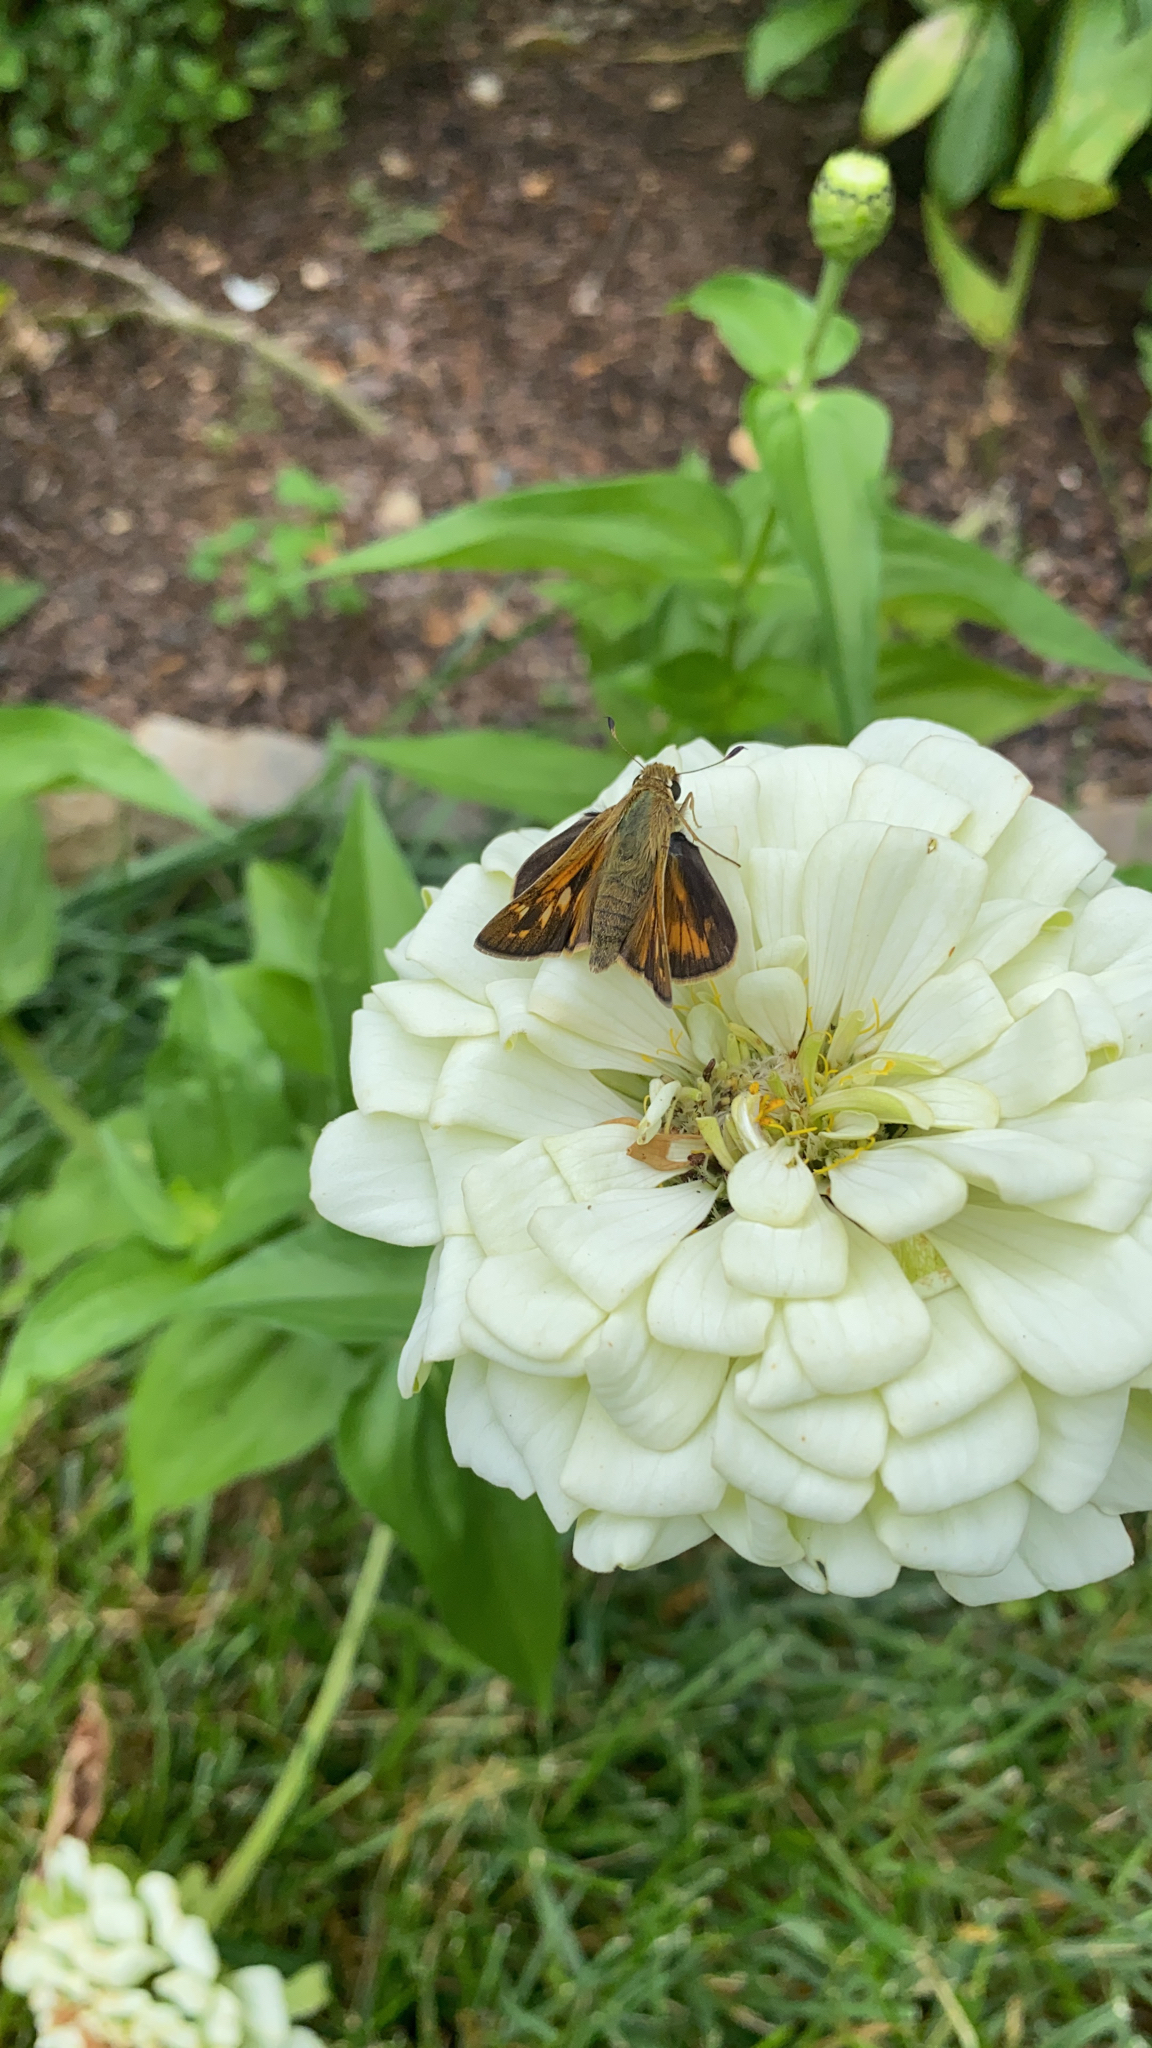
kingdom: Animalia
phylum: Arthropoda
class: Insecta
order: Lepidoptera
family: Hesperiidae
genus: Atalopedes
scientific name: Atalopedes
